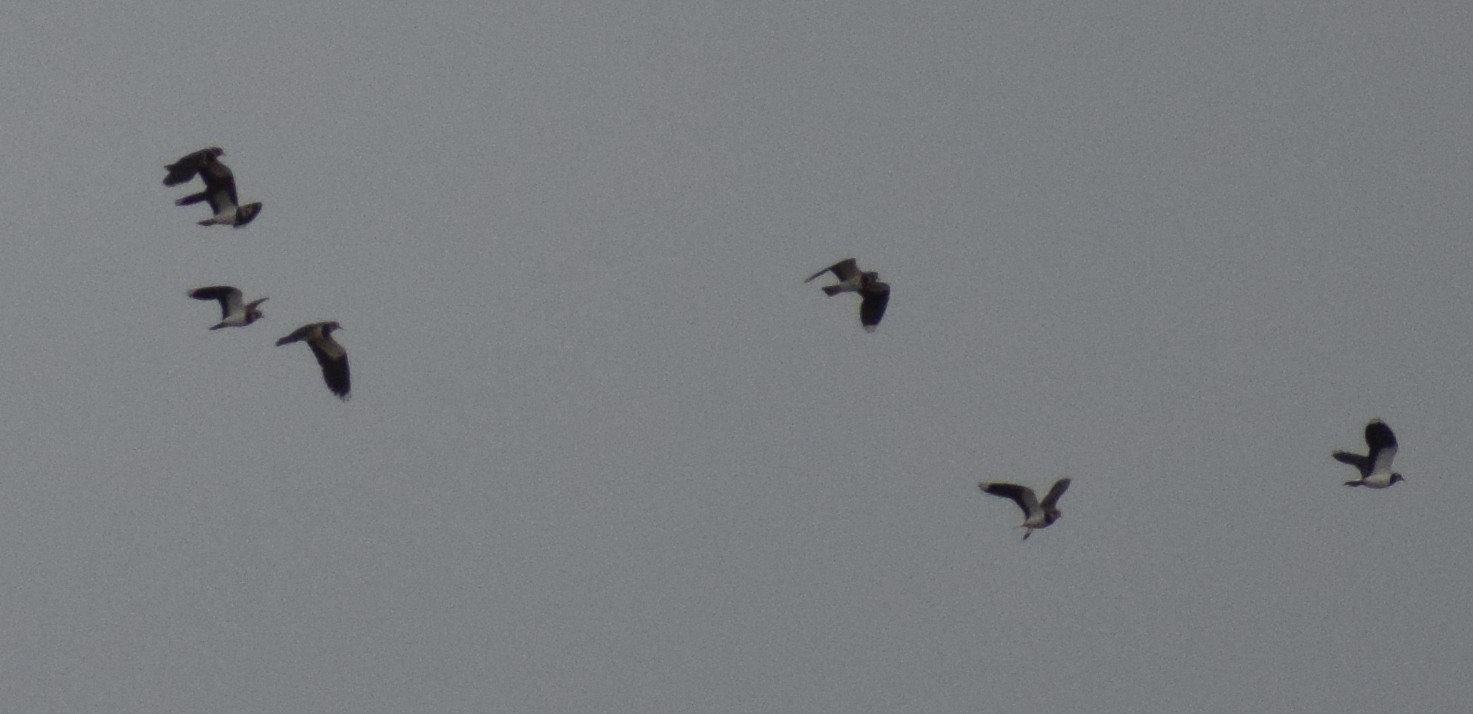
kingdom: Animalia
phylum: Chordata
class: Aves
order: Charadriiformes
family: Charadriidae
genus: Vanellus
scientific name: Vanellus vanellus
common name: Northern lapwing
